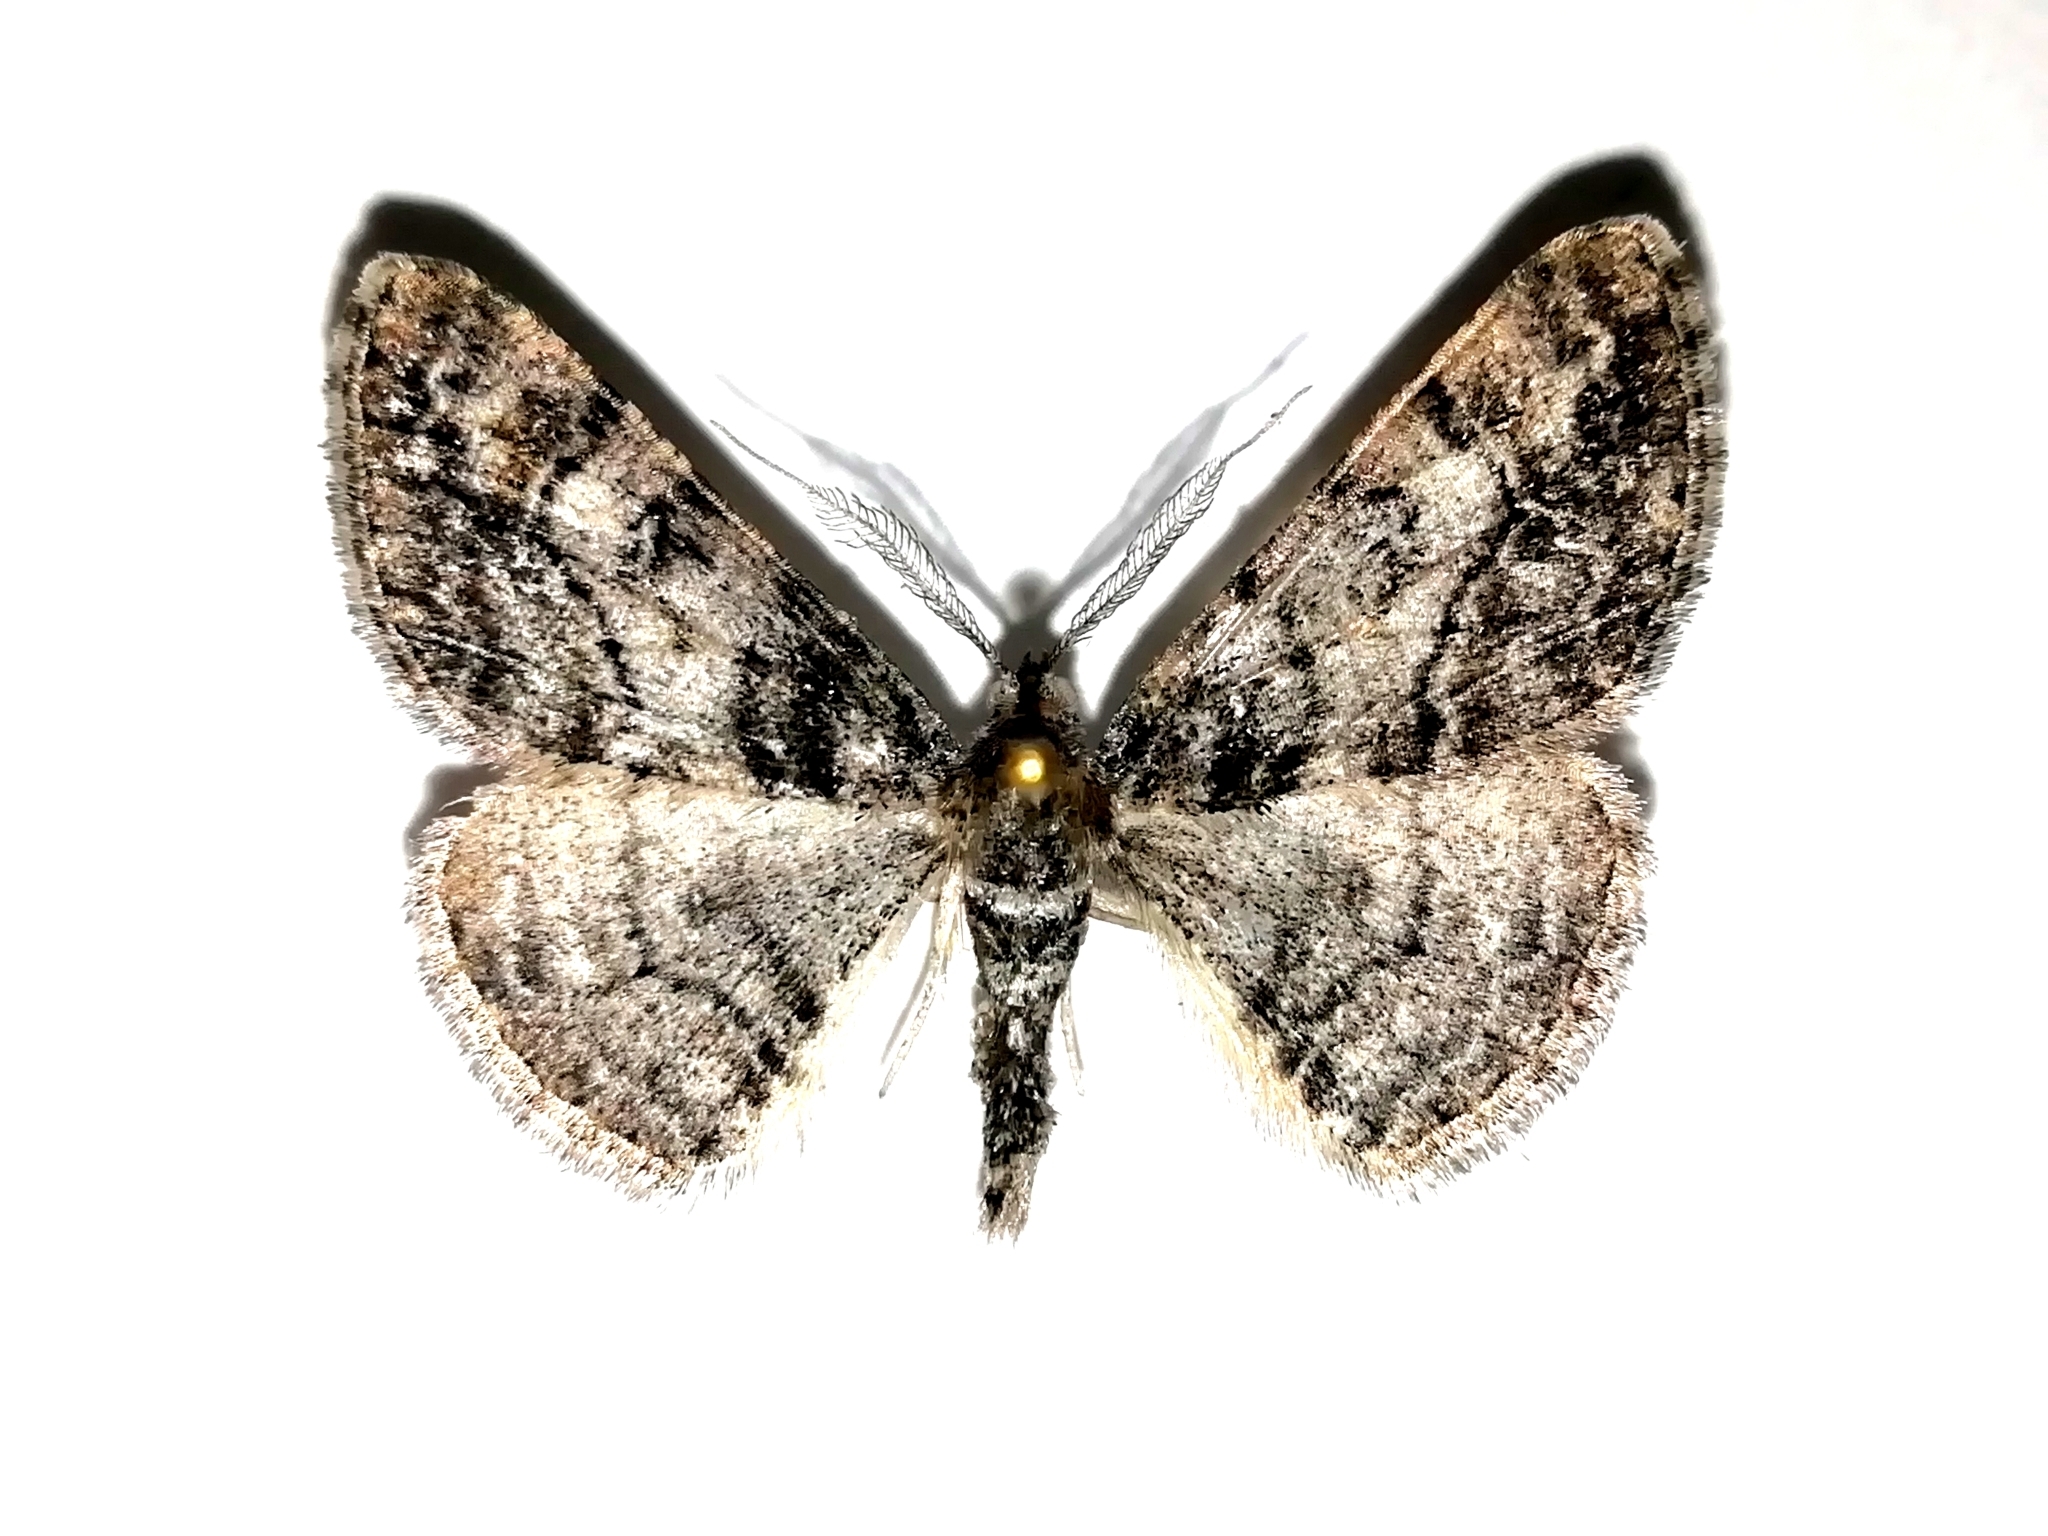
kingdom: Animalia
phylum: Arthropoda
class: Insecta
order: Lepidoptera
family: Geometridae
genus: Cleora
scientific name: Cleora cinctaria
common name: Ringed carpet
